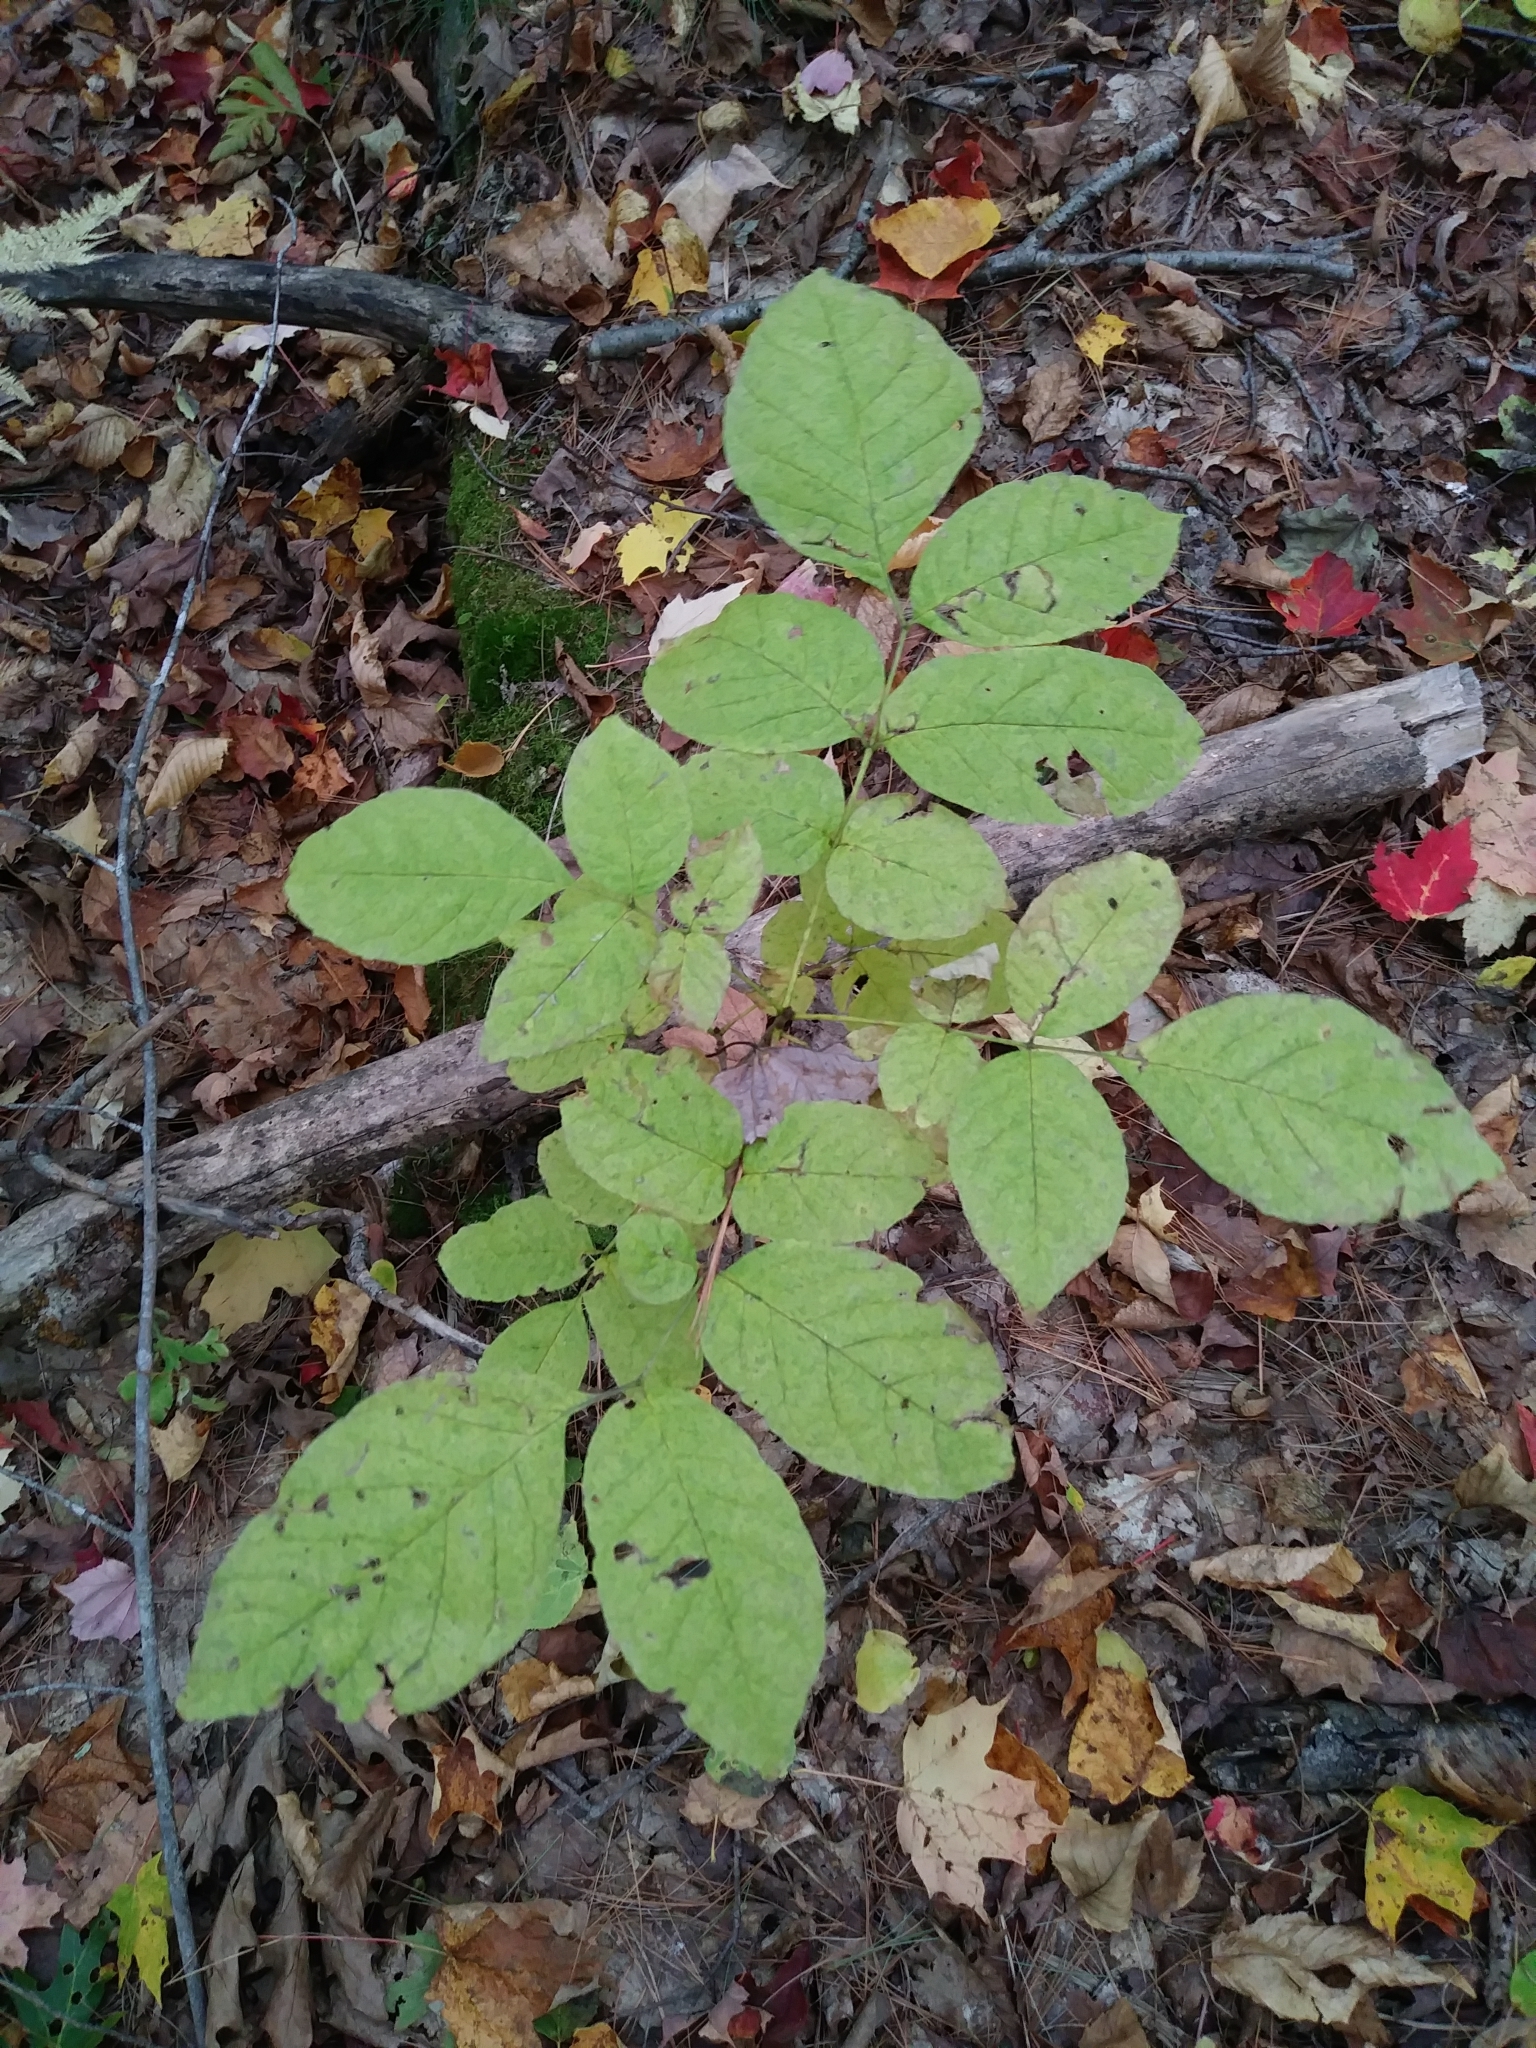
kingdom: Plantae
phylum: Tracheophyta
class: Magnoliopsida
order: Apiales
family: Araliaceae
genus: Aralia
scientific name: Aralia nudicaulis
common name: Wild sarsaparilla
